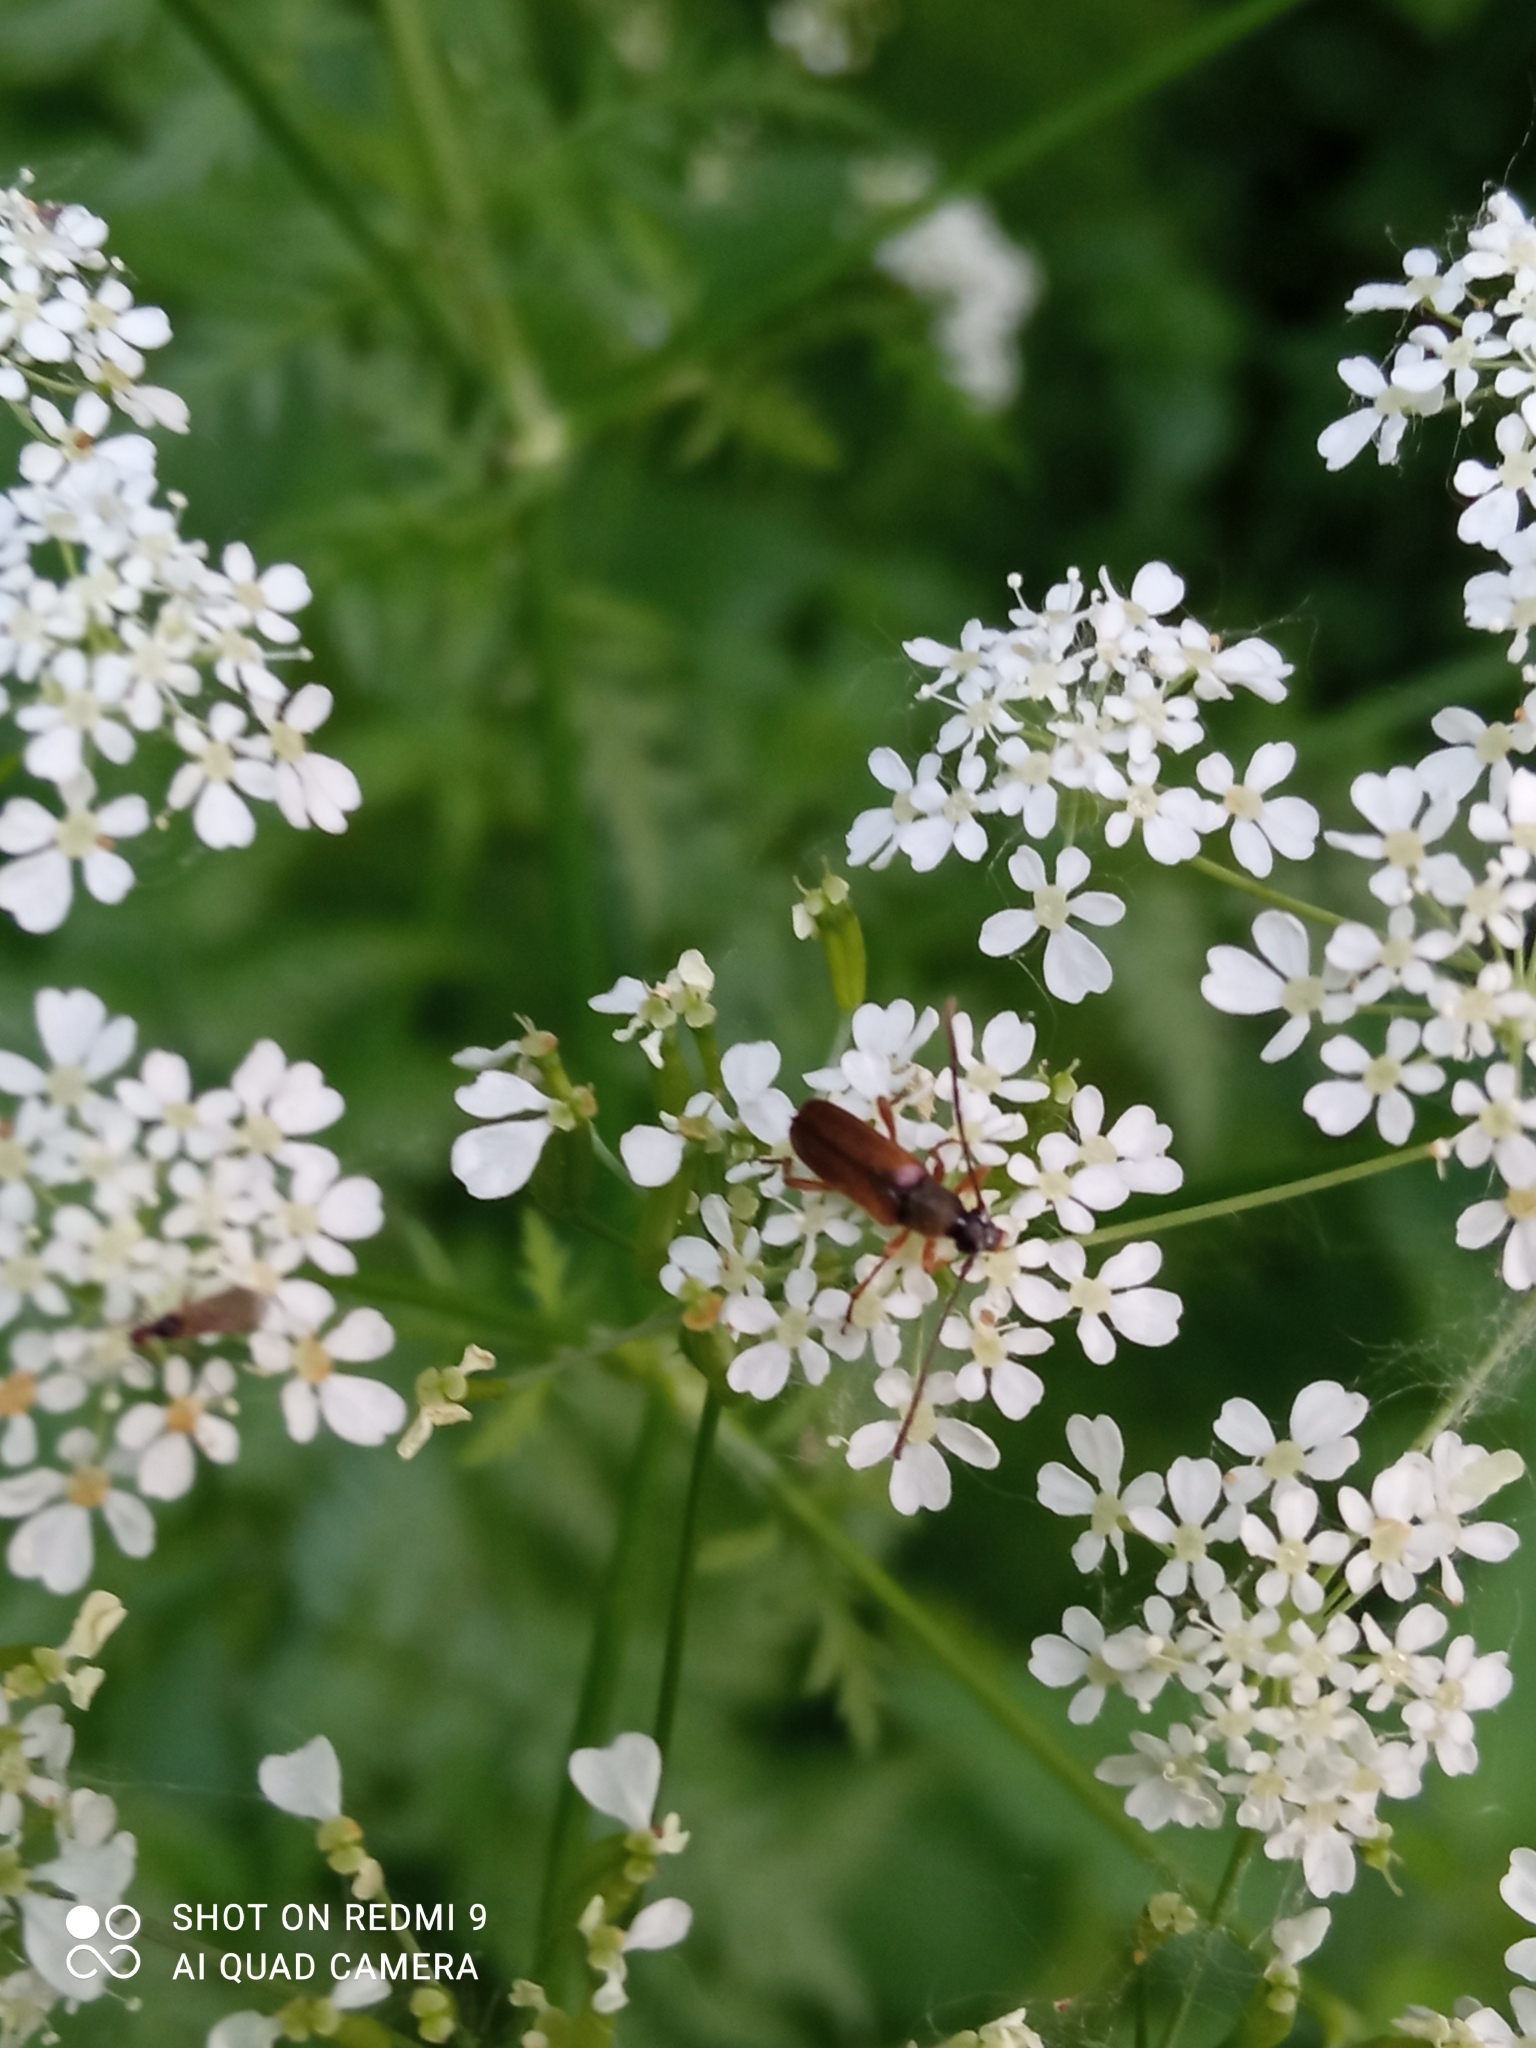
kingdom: Animalia
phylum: Arthropoda
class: Insecta
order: Coleoptera
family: Cerambycidae
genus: Alosterna
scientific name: Alosterna tabacicolor
